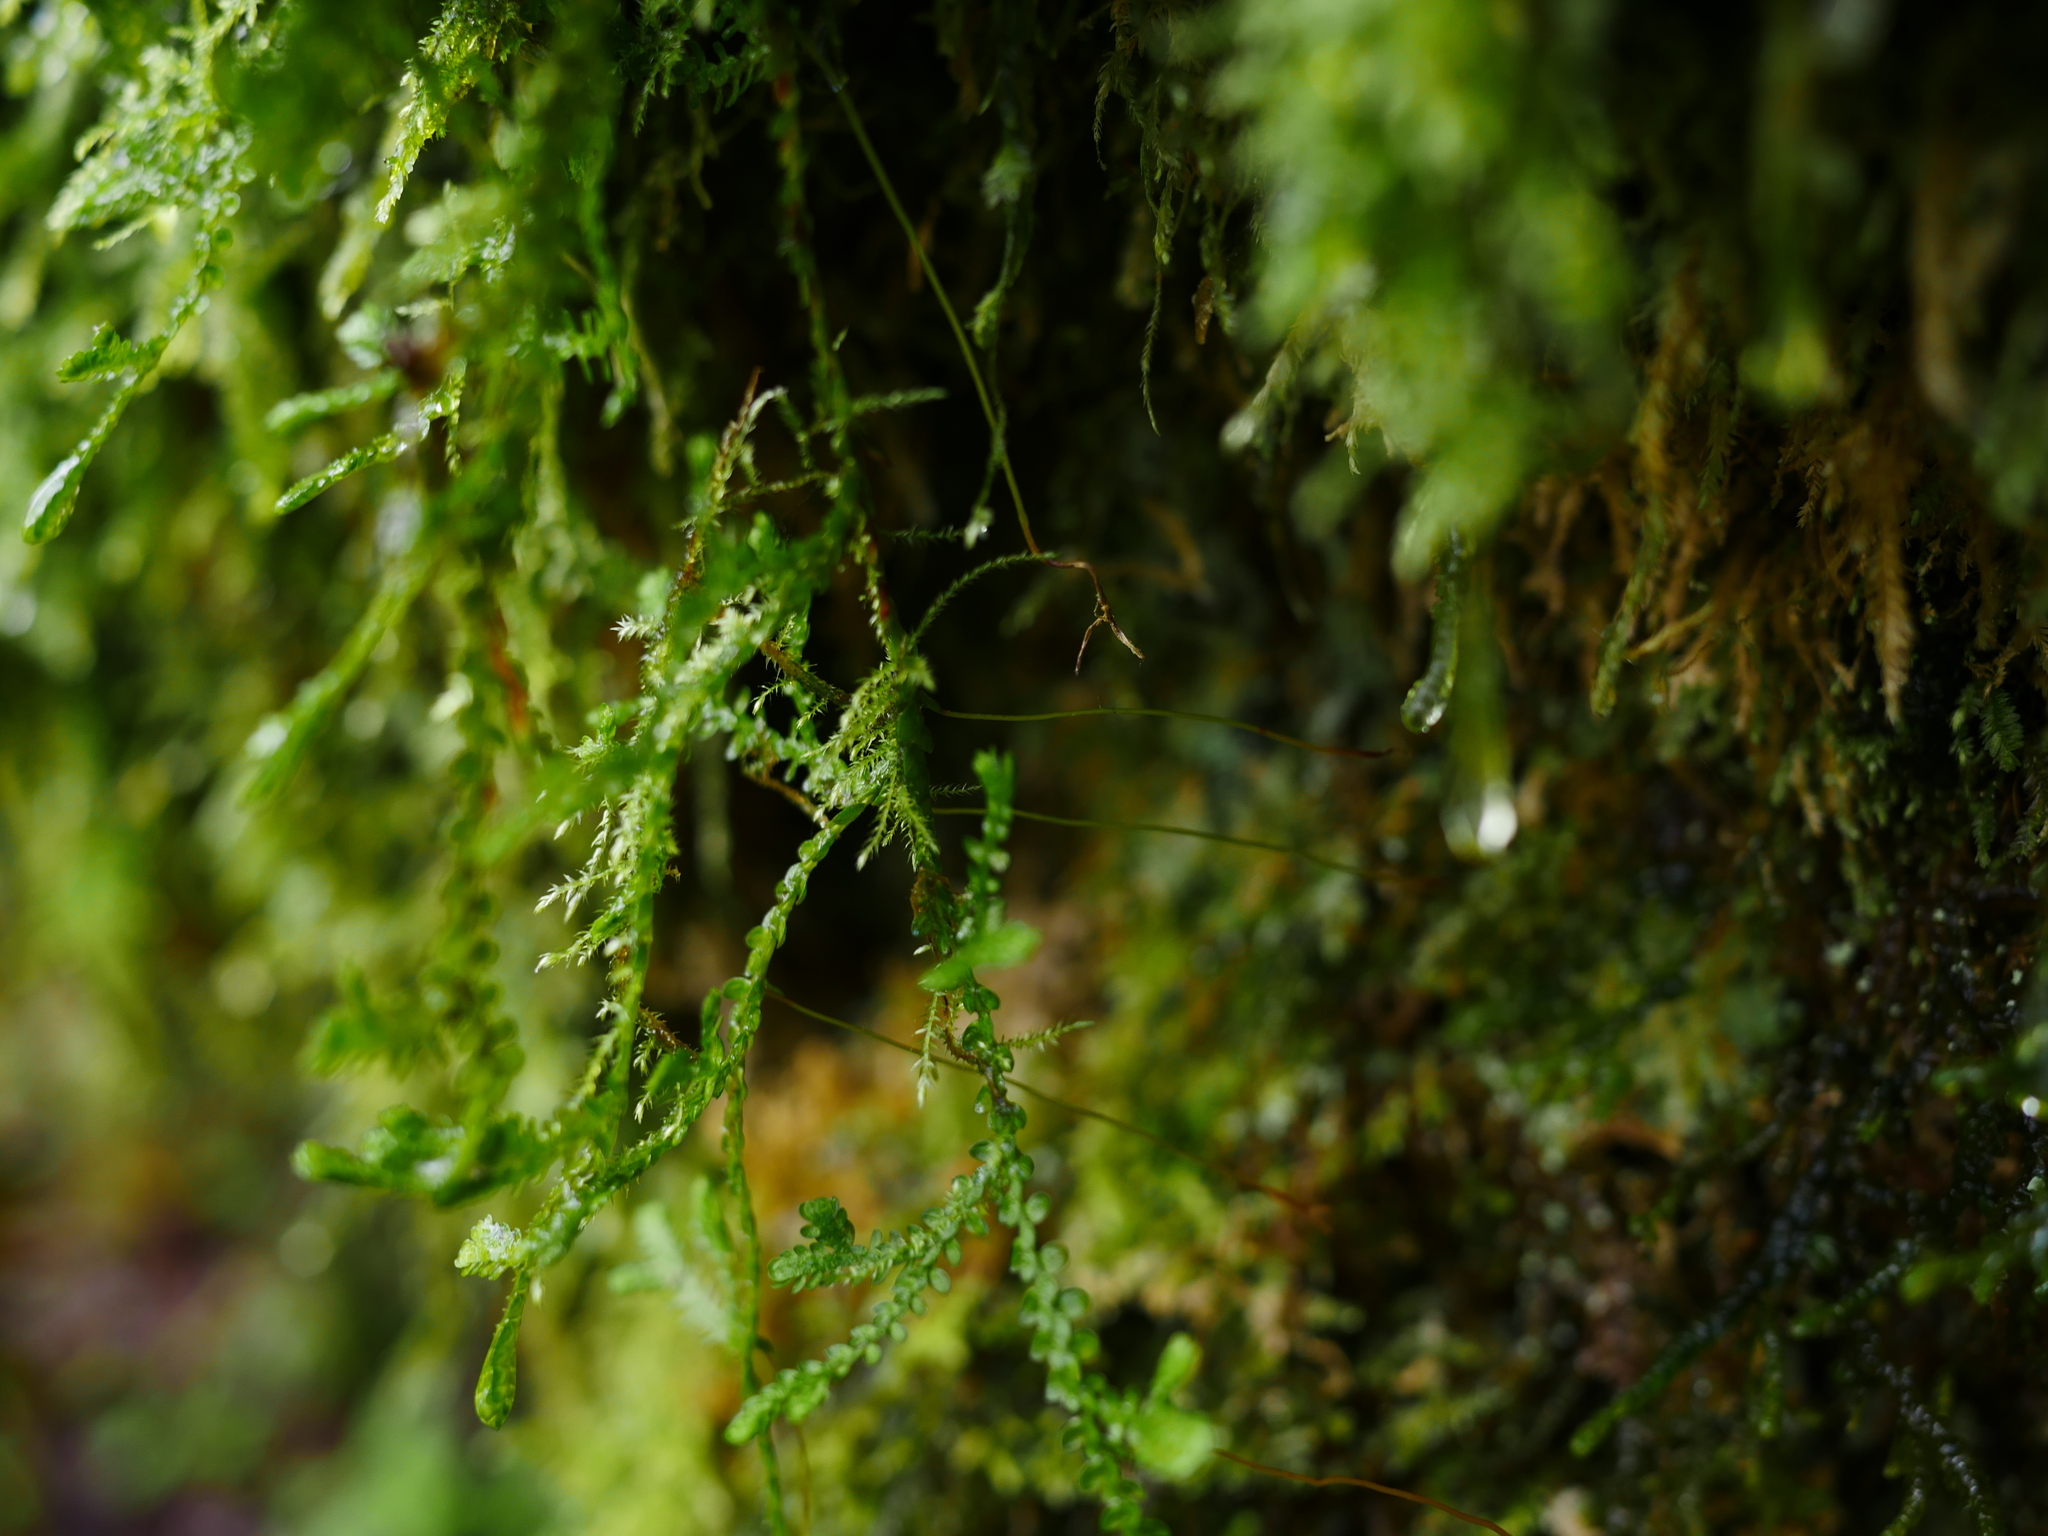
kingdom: Plantae
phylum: Tracheophyta
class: Lycopodiopsida
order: Selaginellales
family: Selaginellaceae
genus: Selaginella
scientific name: Selaginella douglasii
